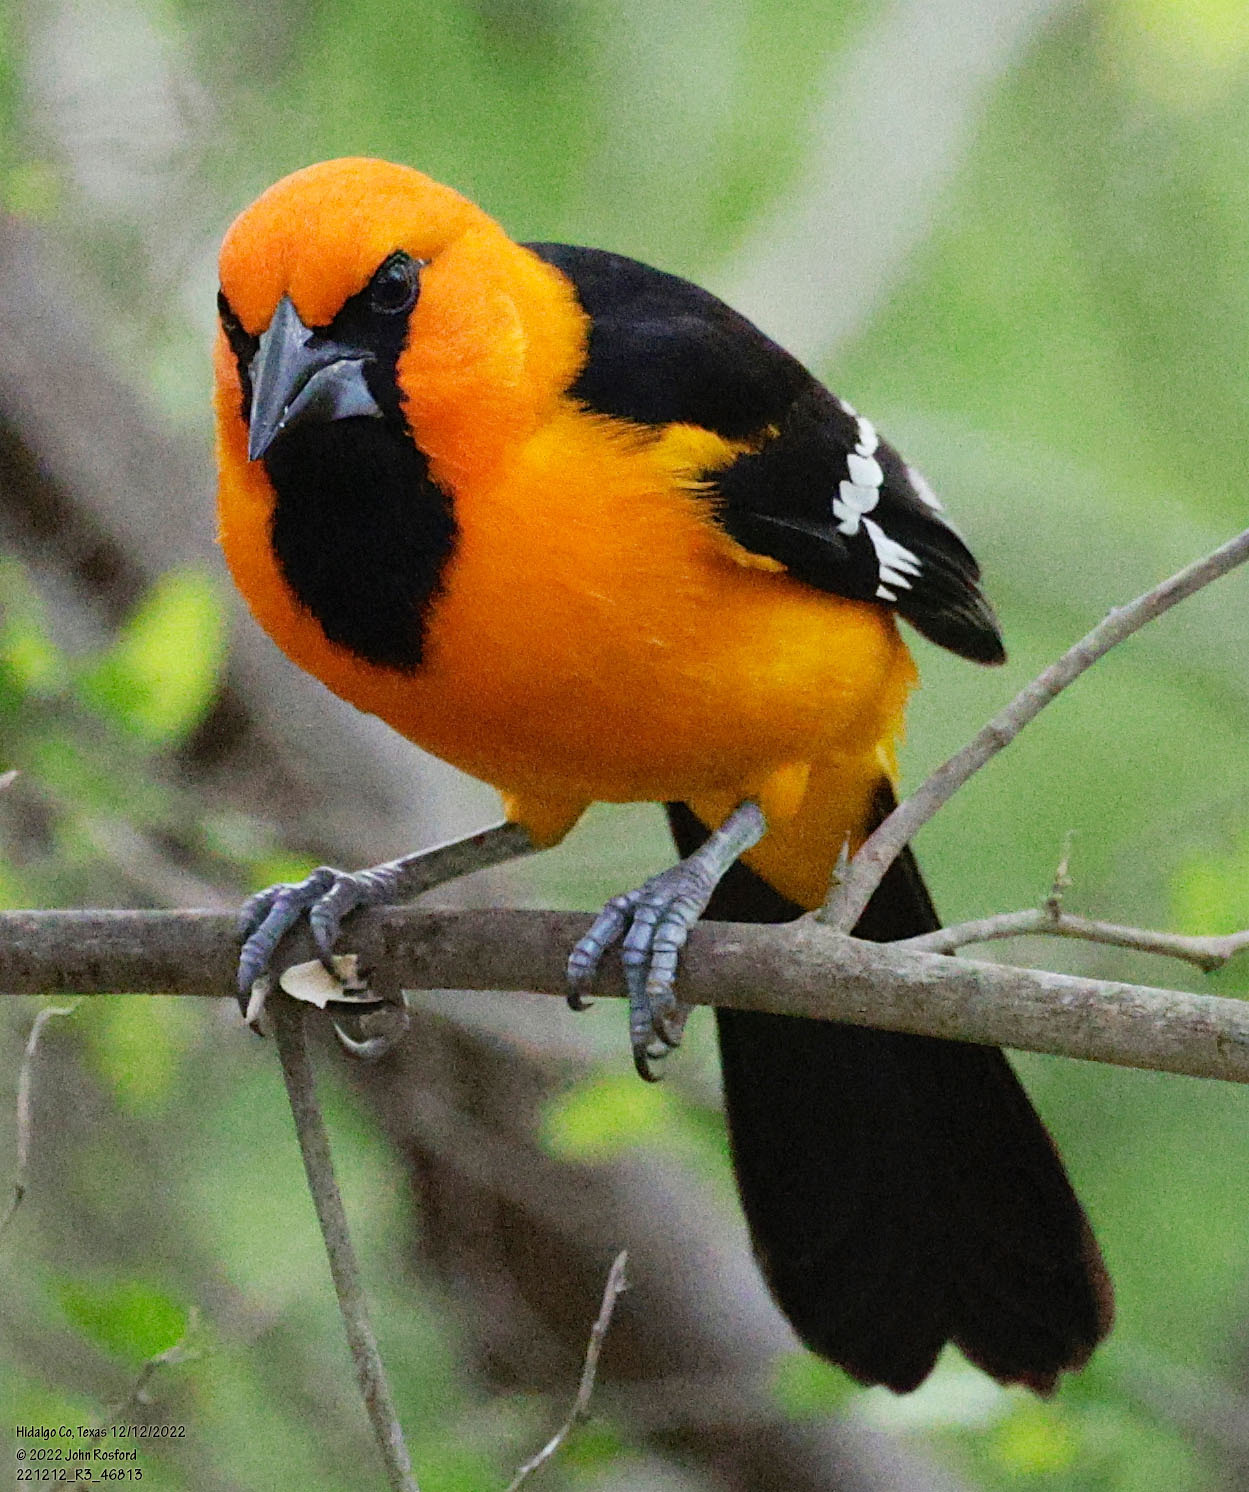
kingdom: Animalia
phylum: Chordata
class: Aves
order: Passeriformes
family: Icteridae
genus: Icterus
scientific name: Icterus gularis
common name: Altamira oriole
